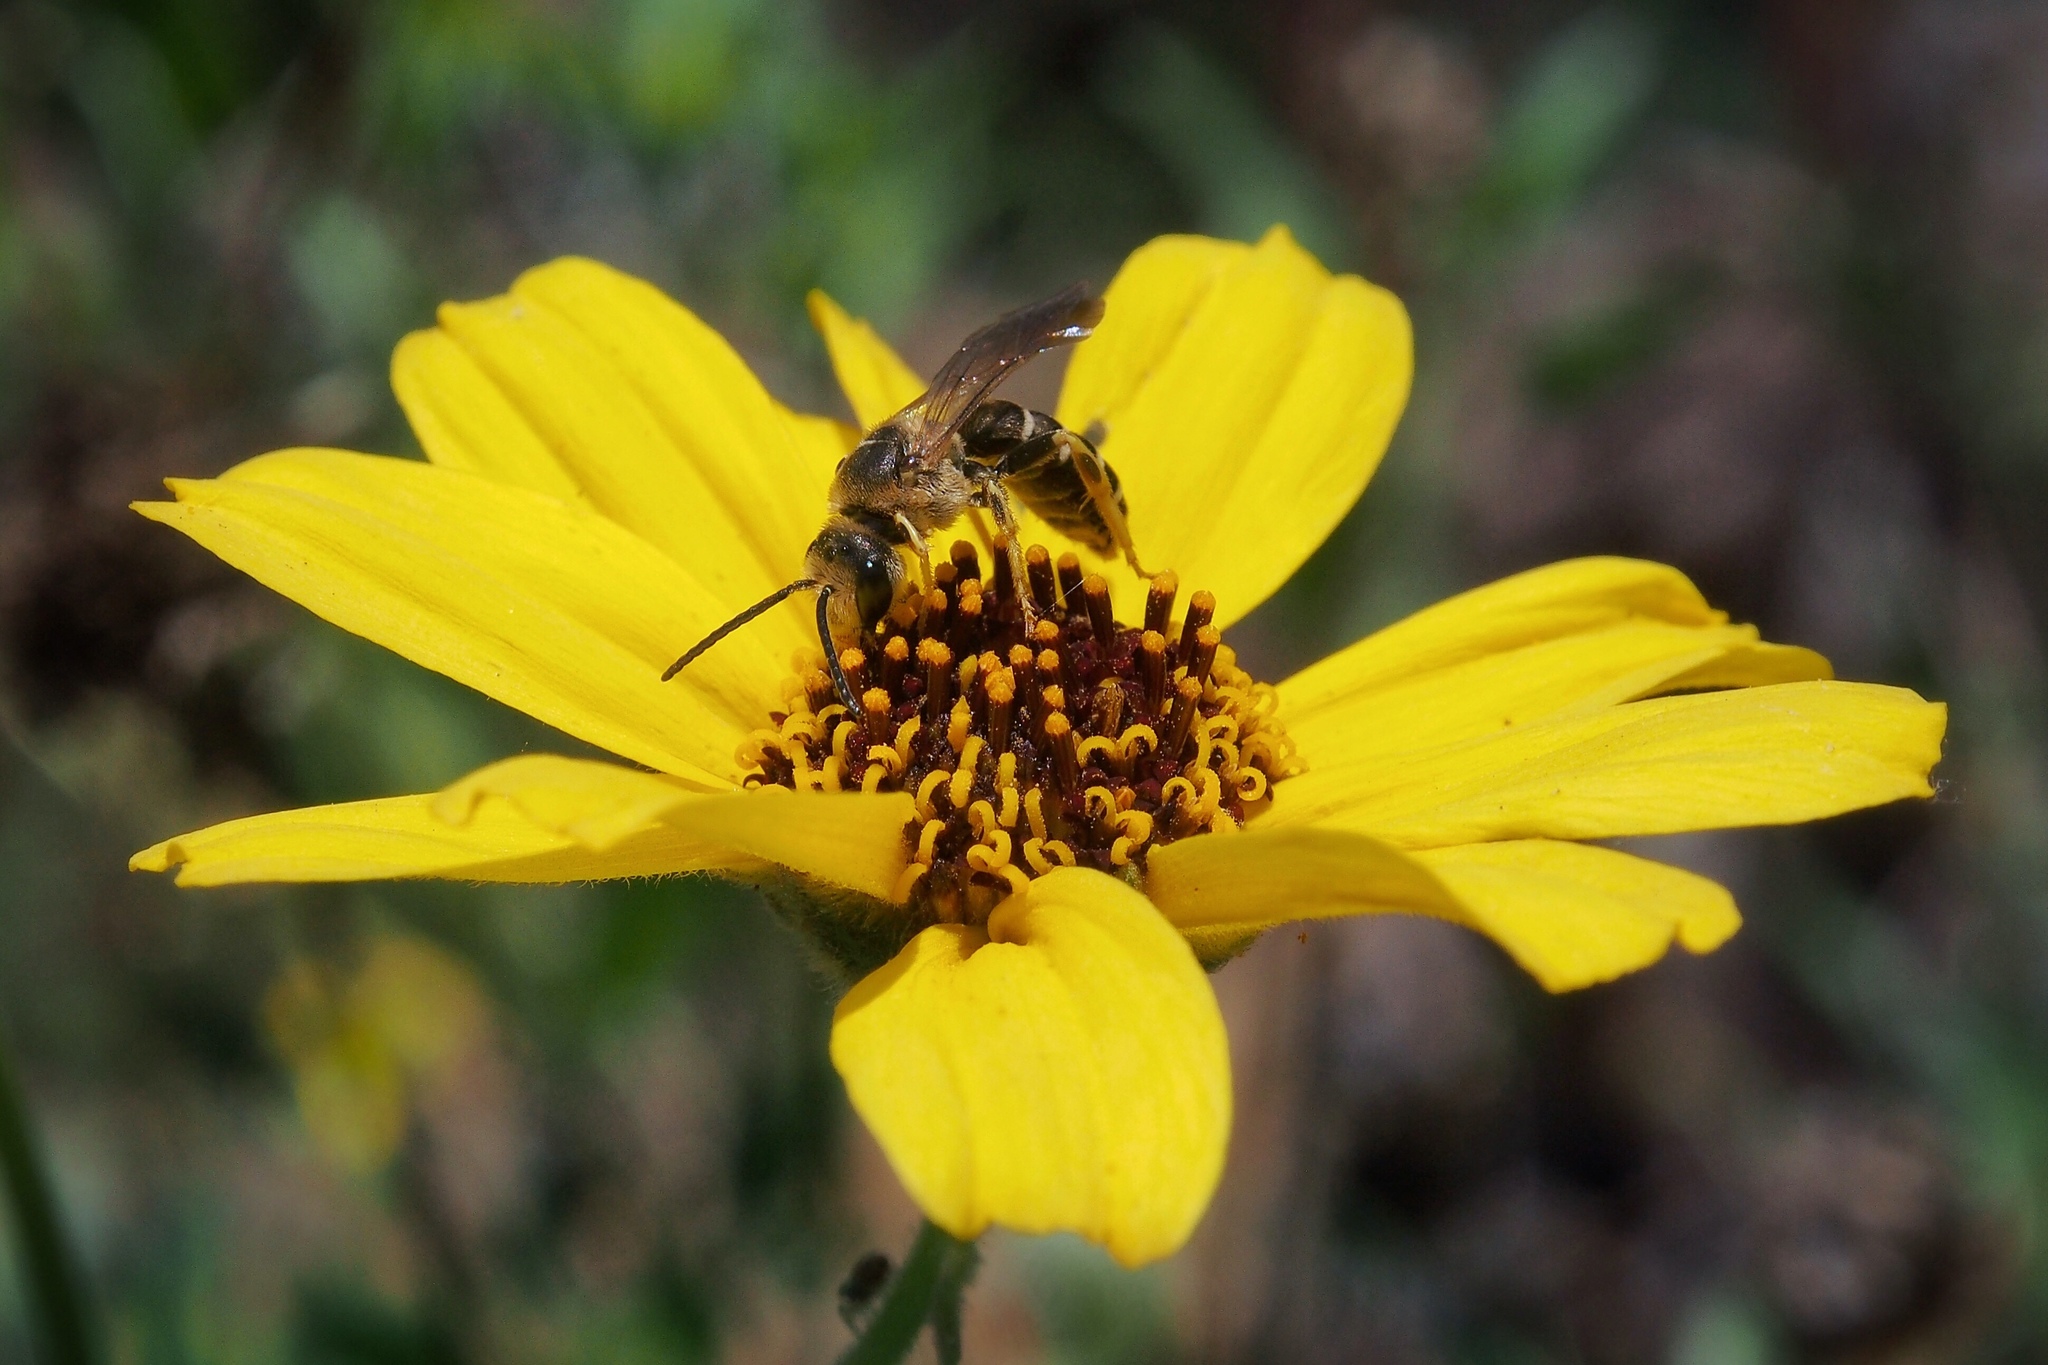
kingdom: Animalia
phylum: Arthropoda
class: Insecta
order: Hymenoptera
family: Halictidae
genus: Halictus
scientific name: Halictus farinosus
